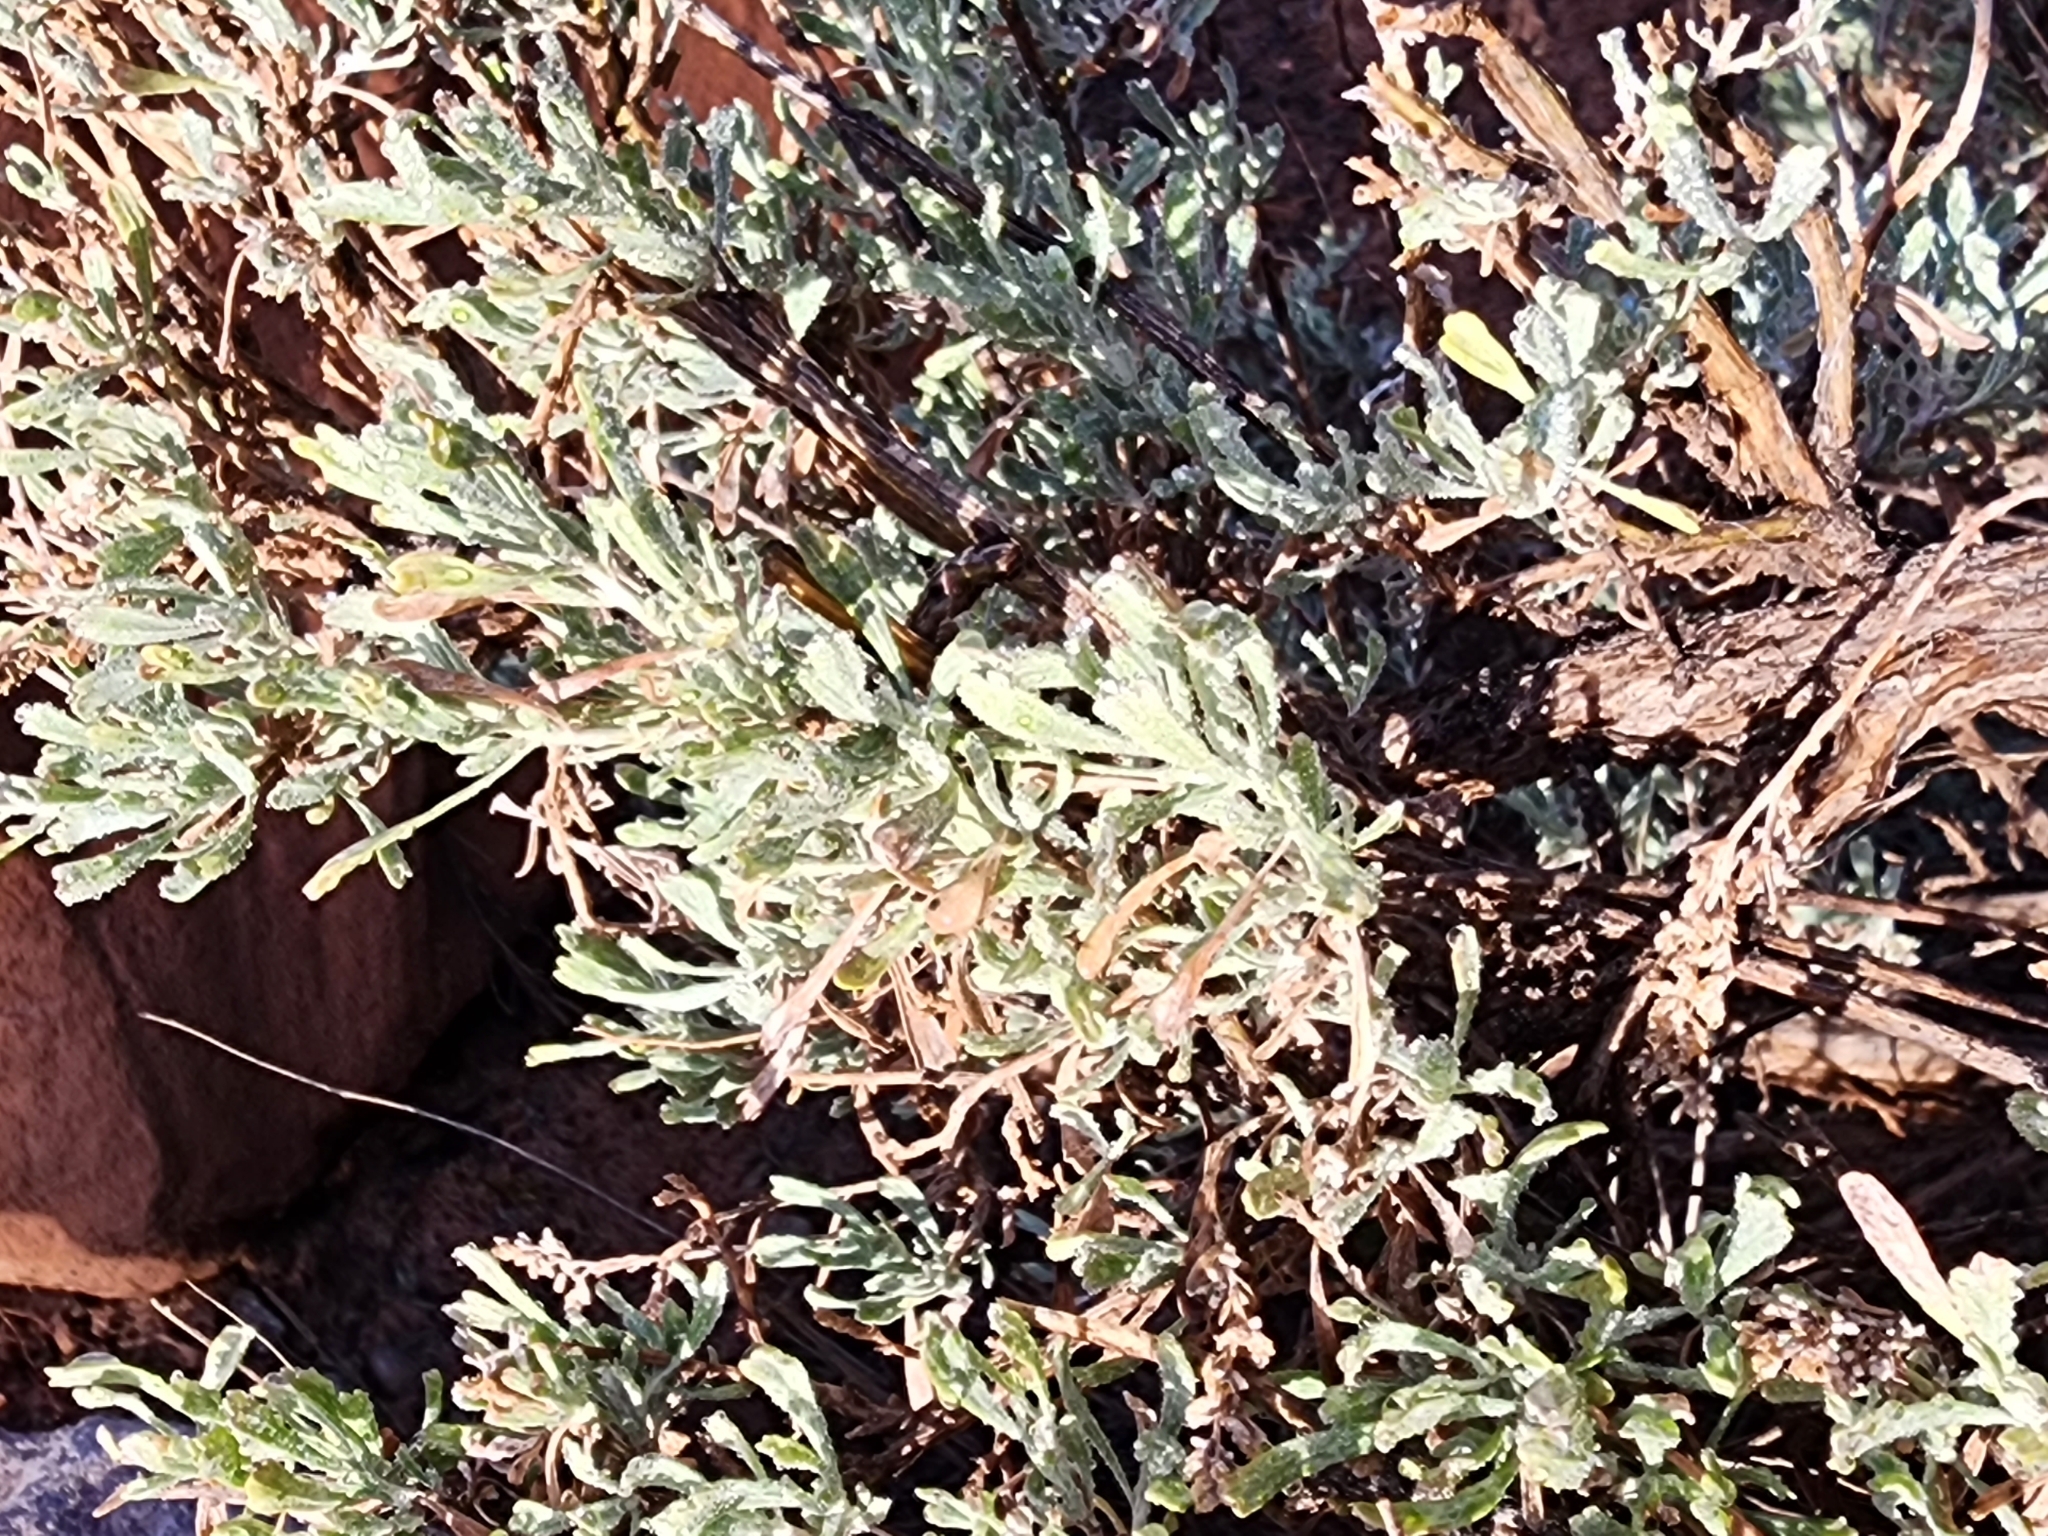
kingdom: Plantae
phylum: Tracheophyta
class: Magnoliopsida
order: Asterales
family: Asteraceae
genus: Artemisia
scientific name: Artemisia tridentata
